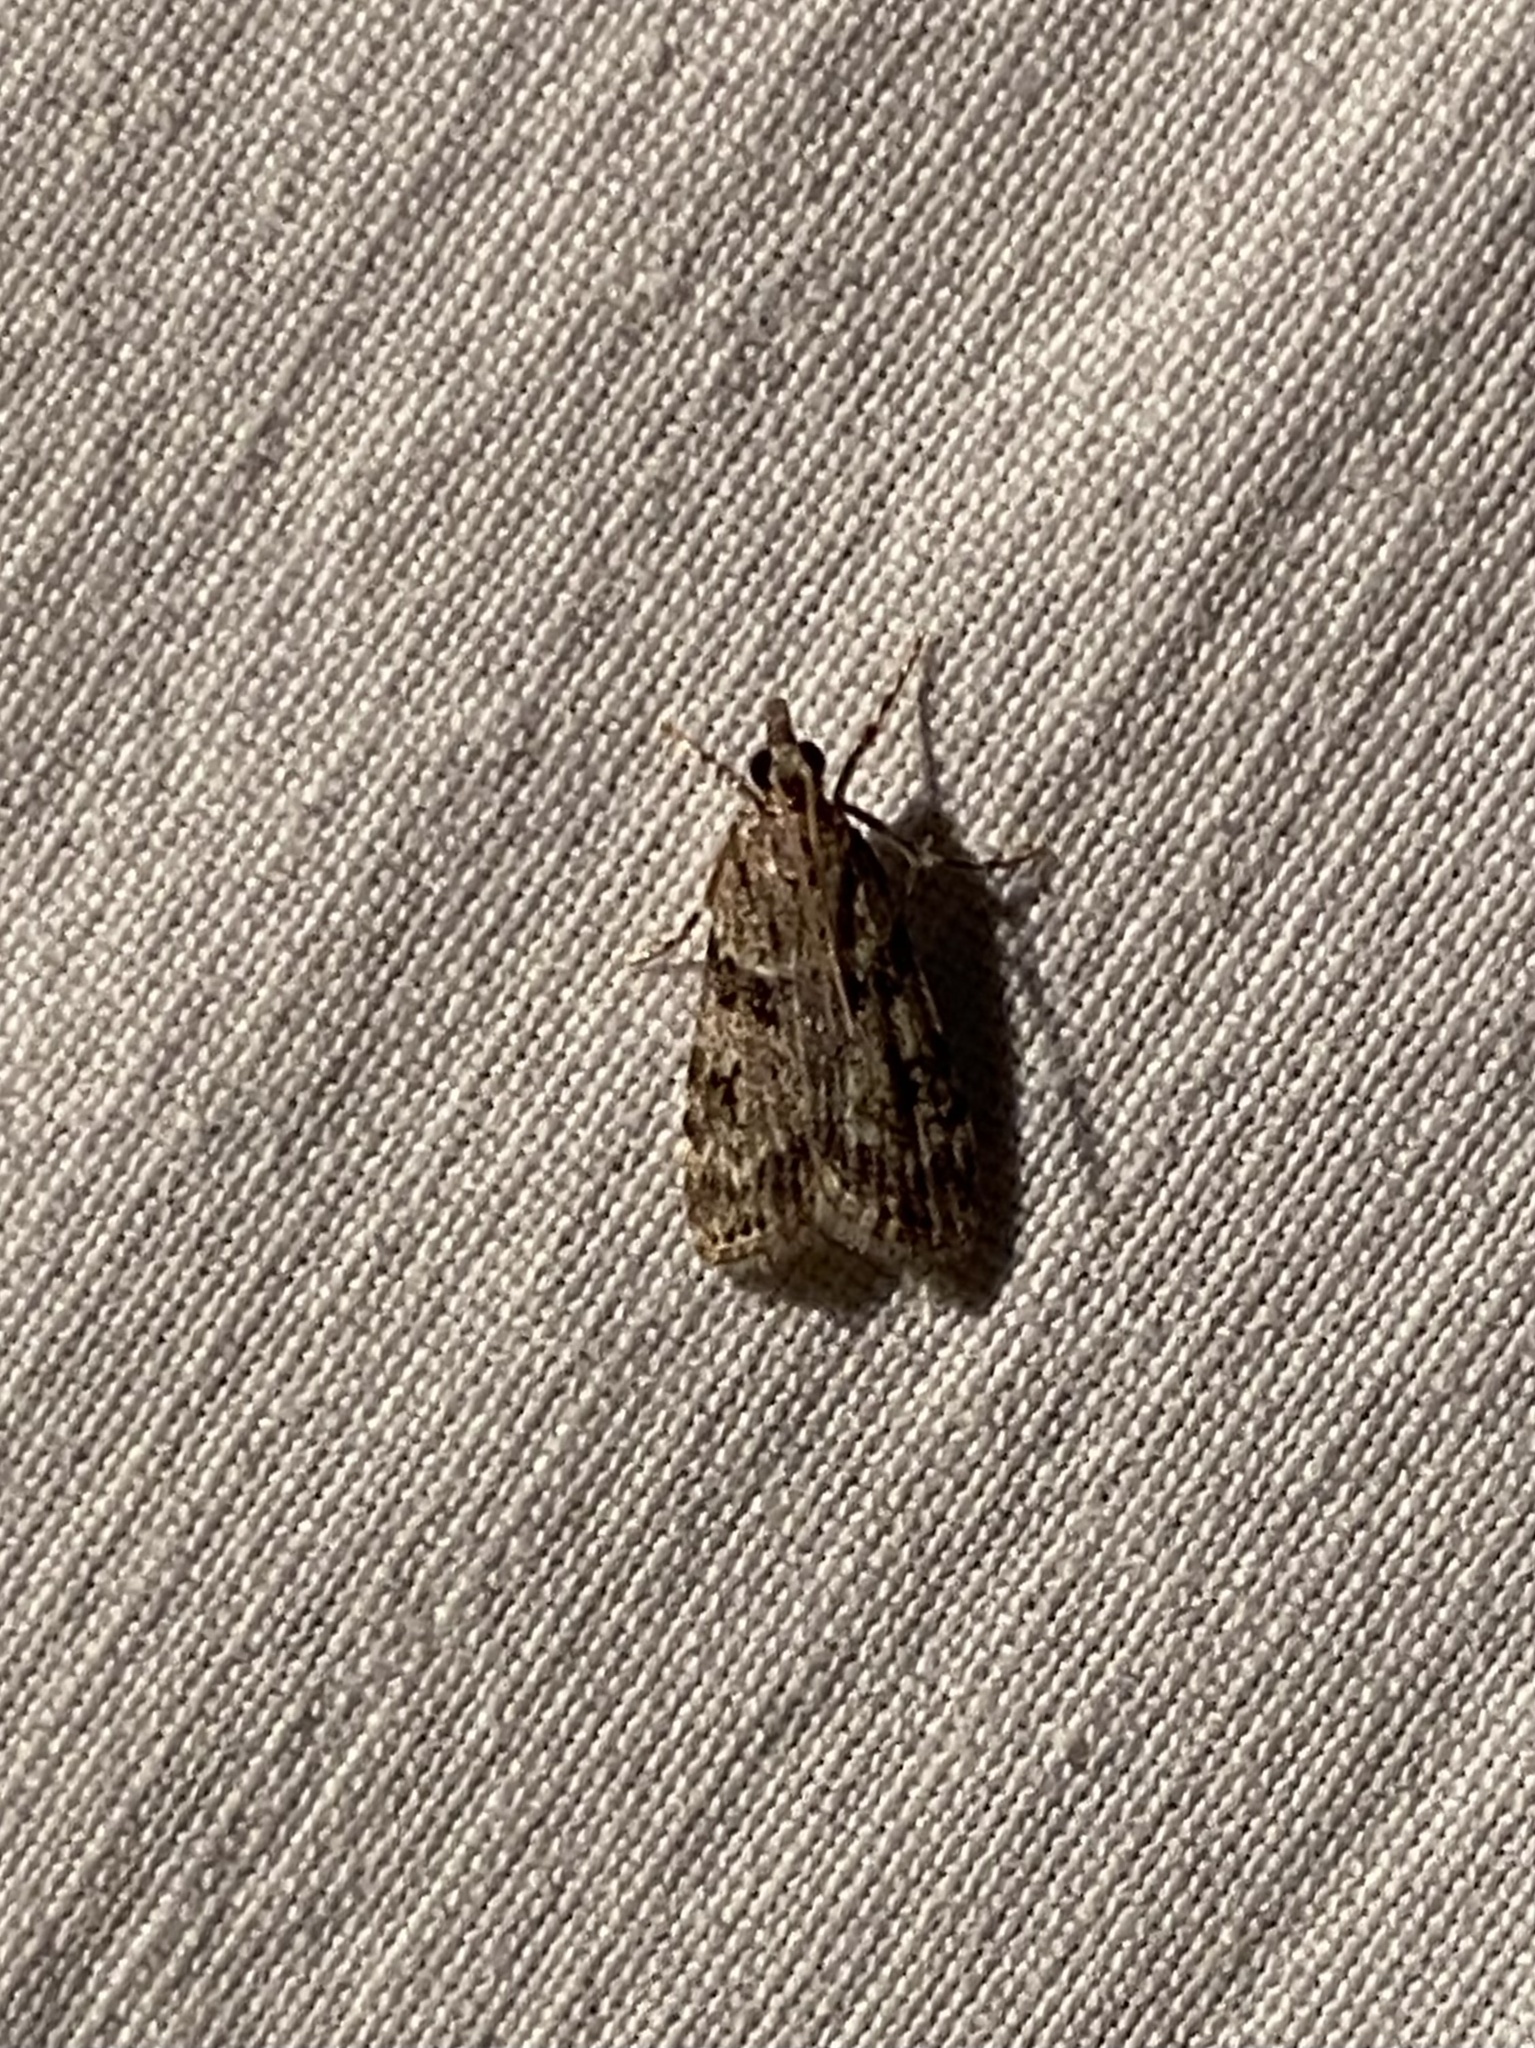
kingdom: Animalia
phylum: Arthropoda
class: Insecta
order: Lepidoptera
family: Crambidae
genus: Scoparia
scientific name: Scoparia biplagialis
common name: Double-striped scoparia moth
